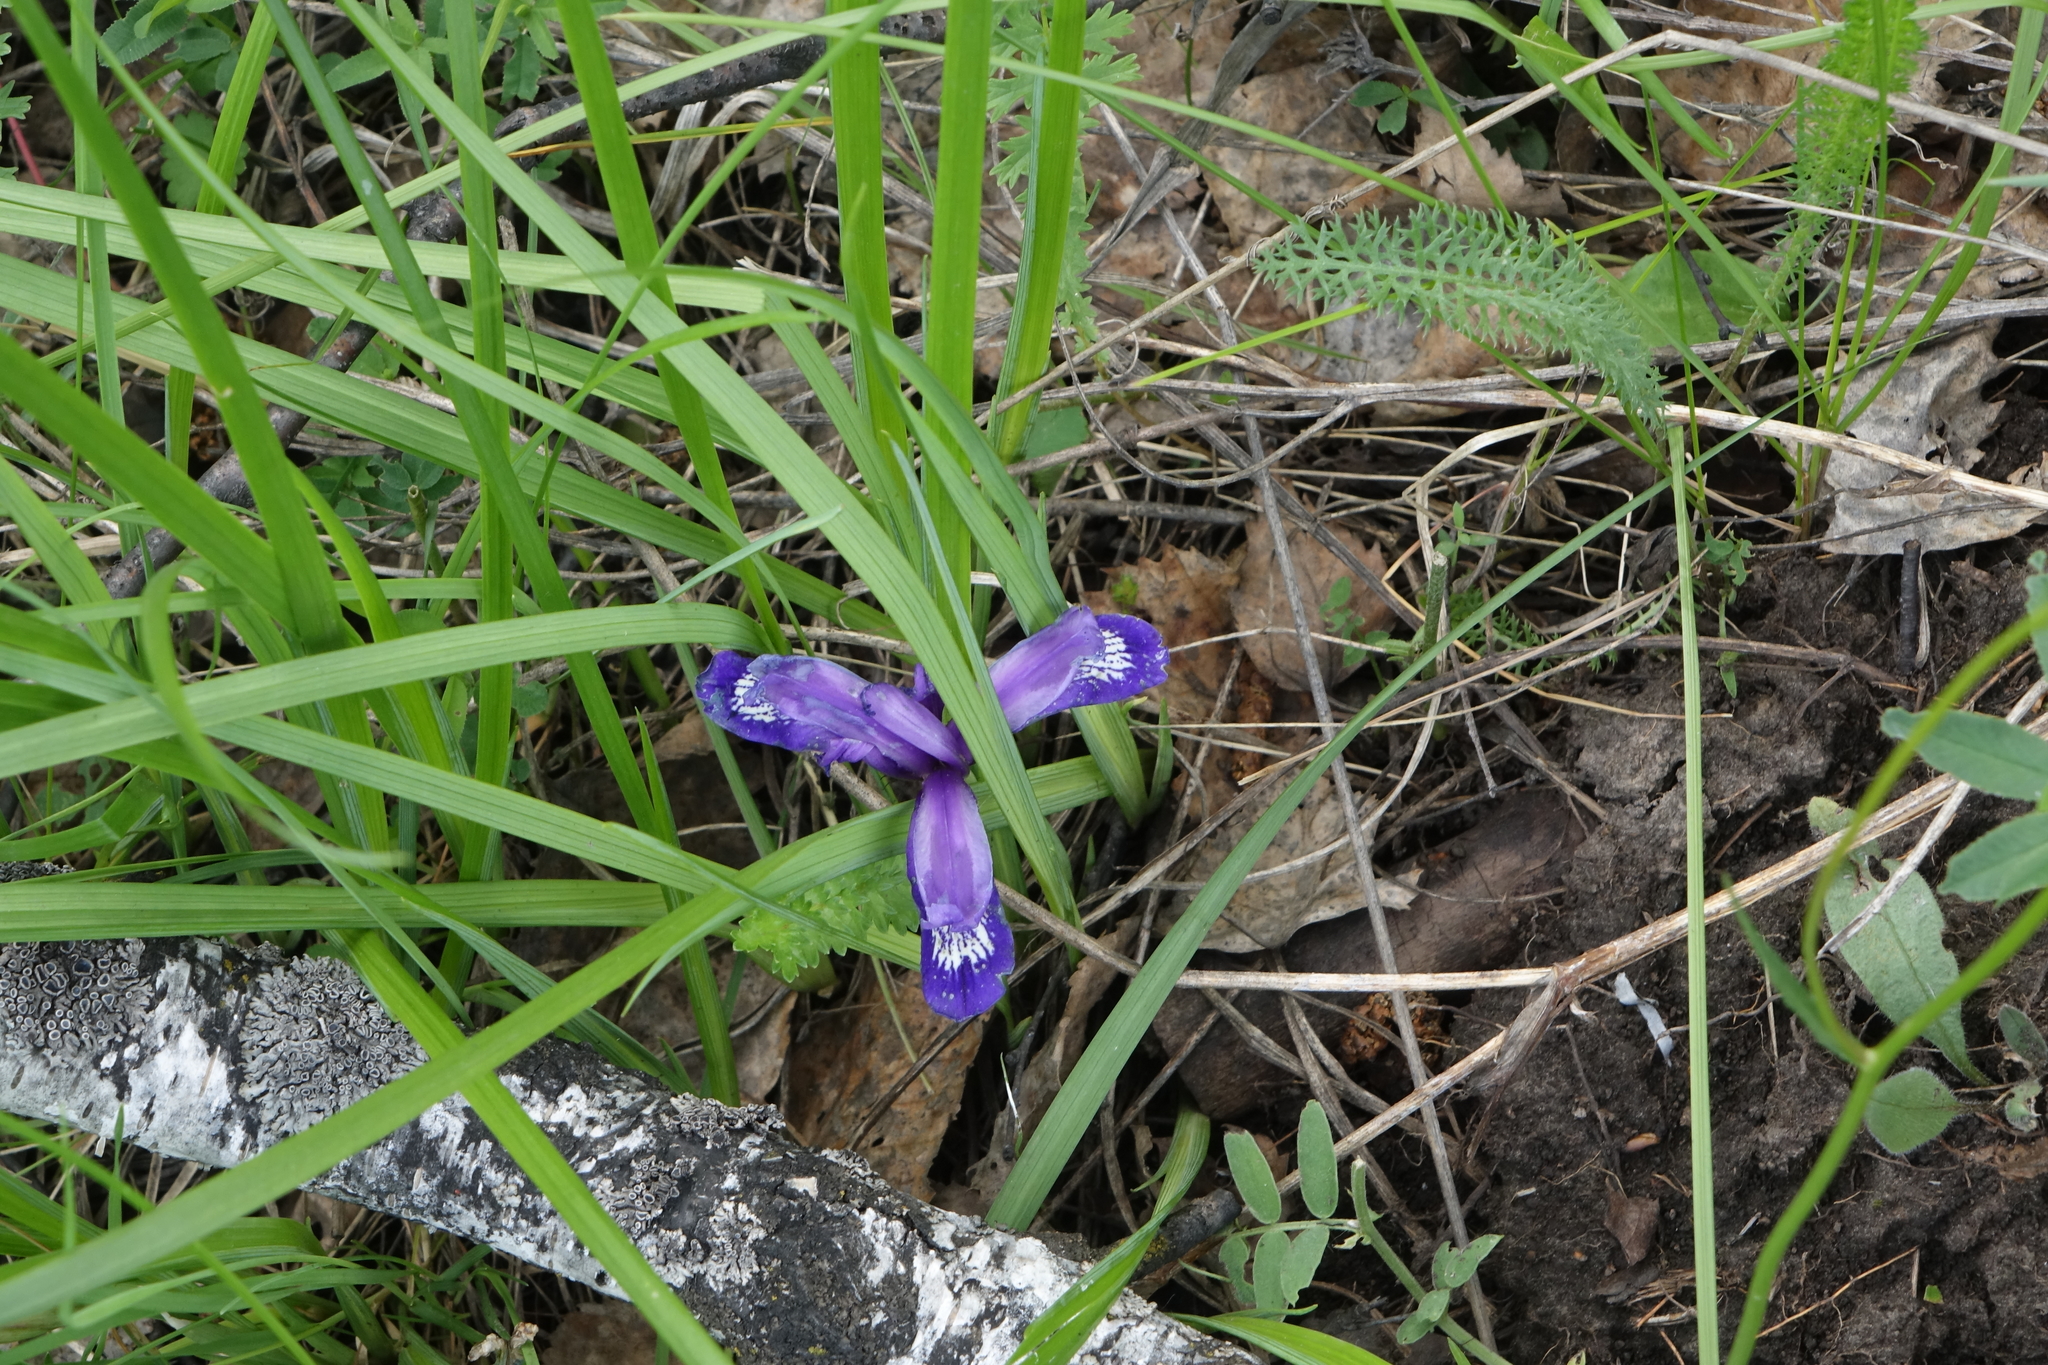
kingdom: Plantae
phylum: Tracheophyta
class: Liliopsida
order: Asparagales
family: Iridaceae
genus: Iris
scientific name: Iris ruthenica
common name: Purple-bract iris
